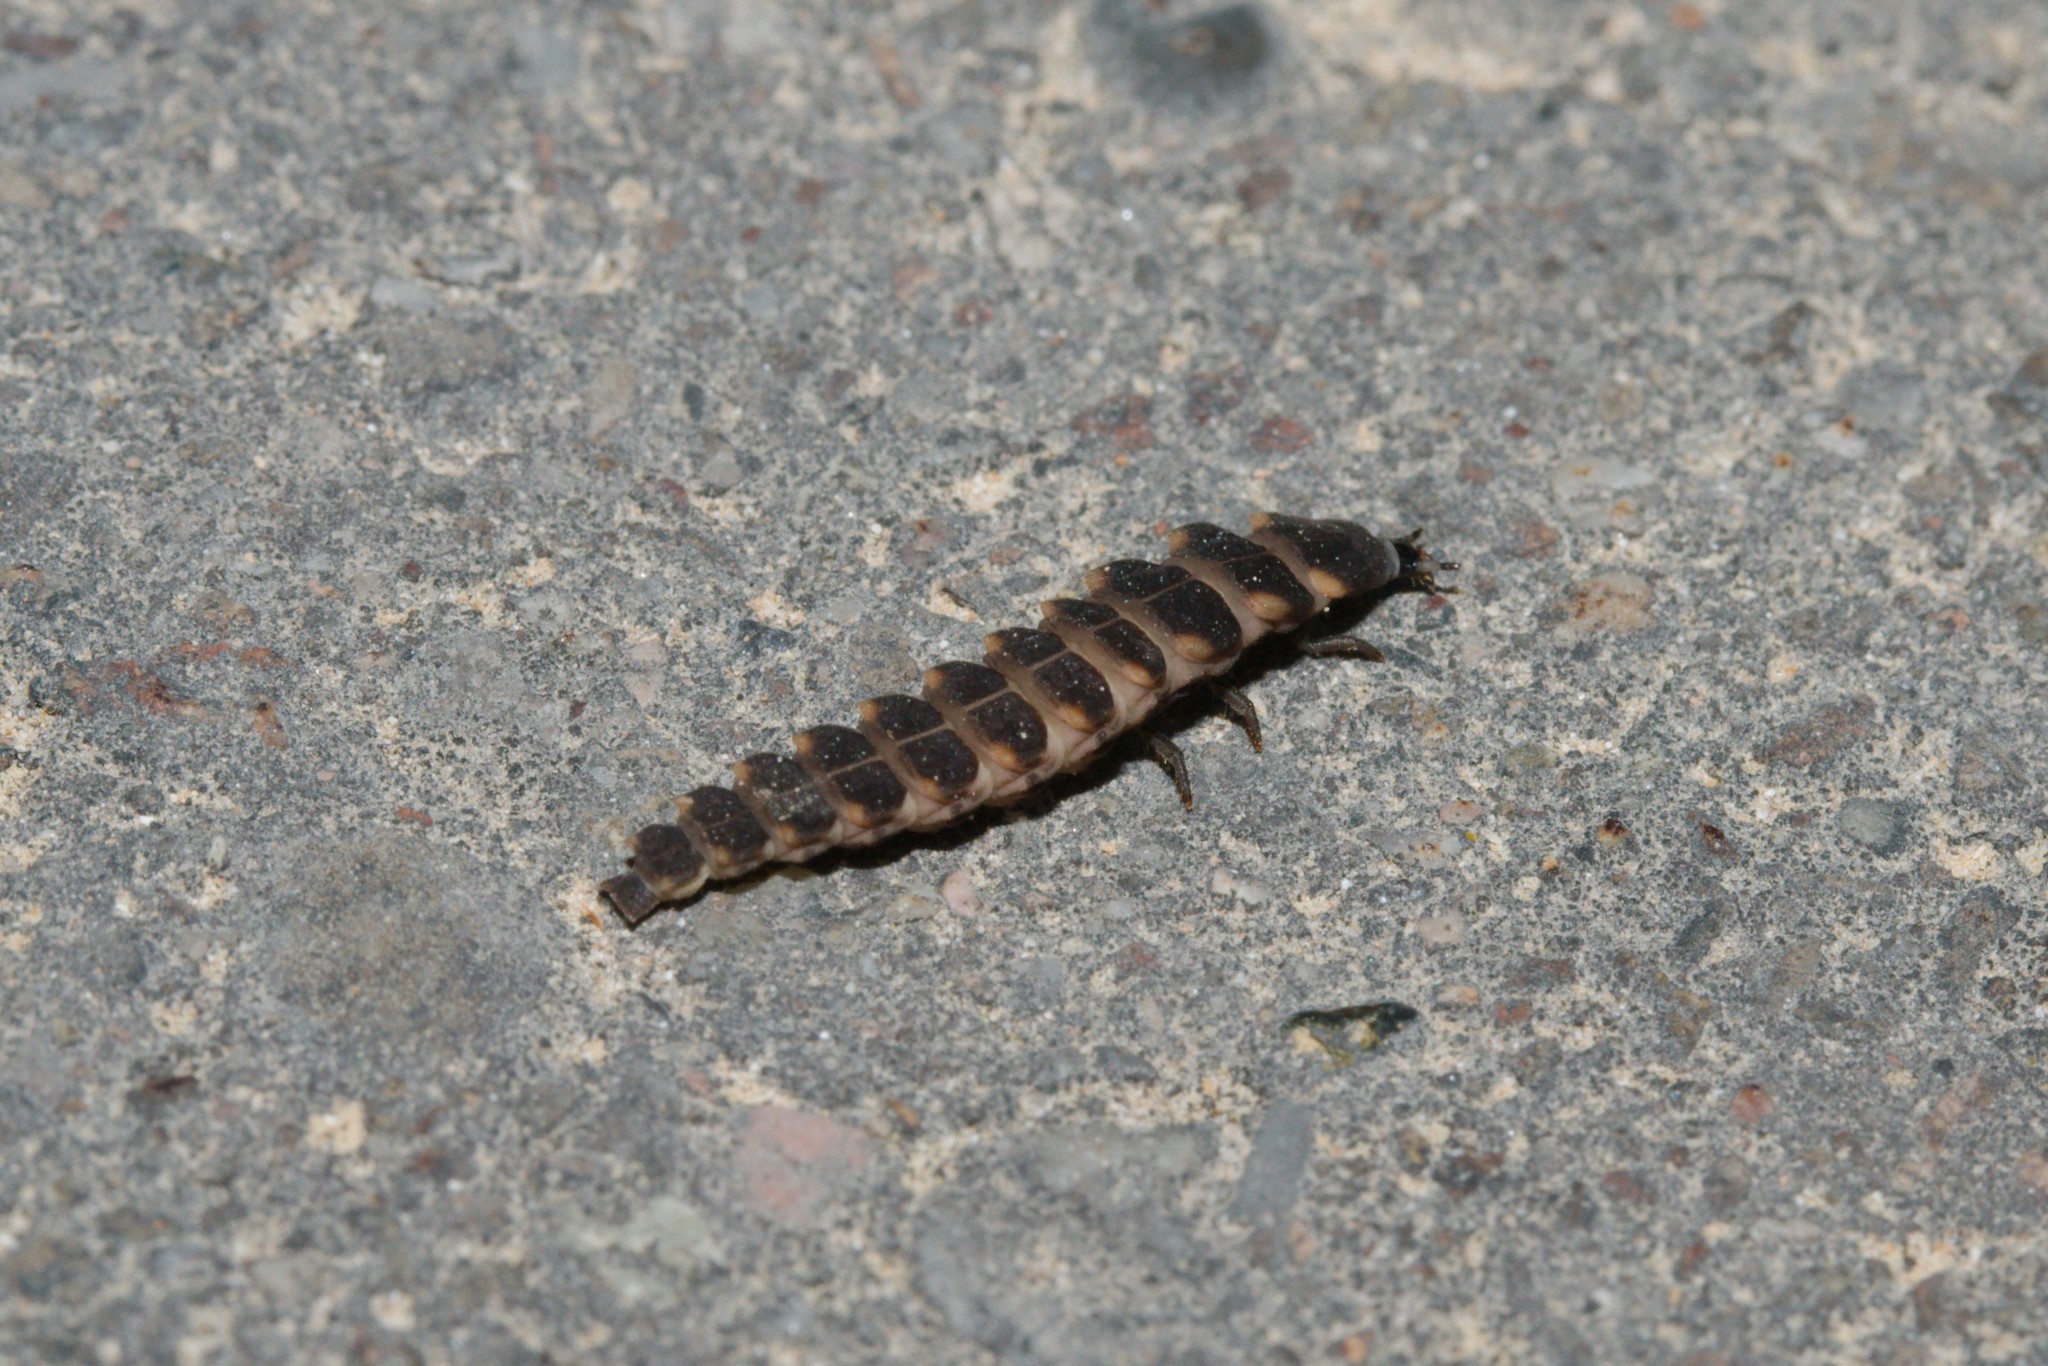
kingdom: Animalia
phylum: Arthropoda
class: Insecta
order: Coleoptera
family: Lampyridae
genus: Lampyris
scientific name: Lampyris noctiluca
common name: Glow-worm
